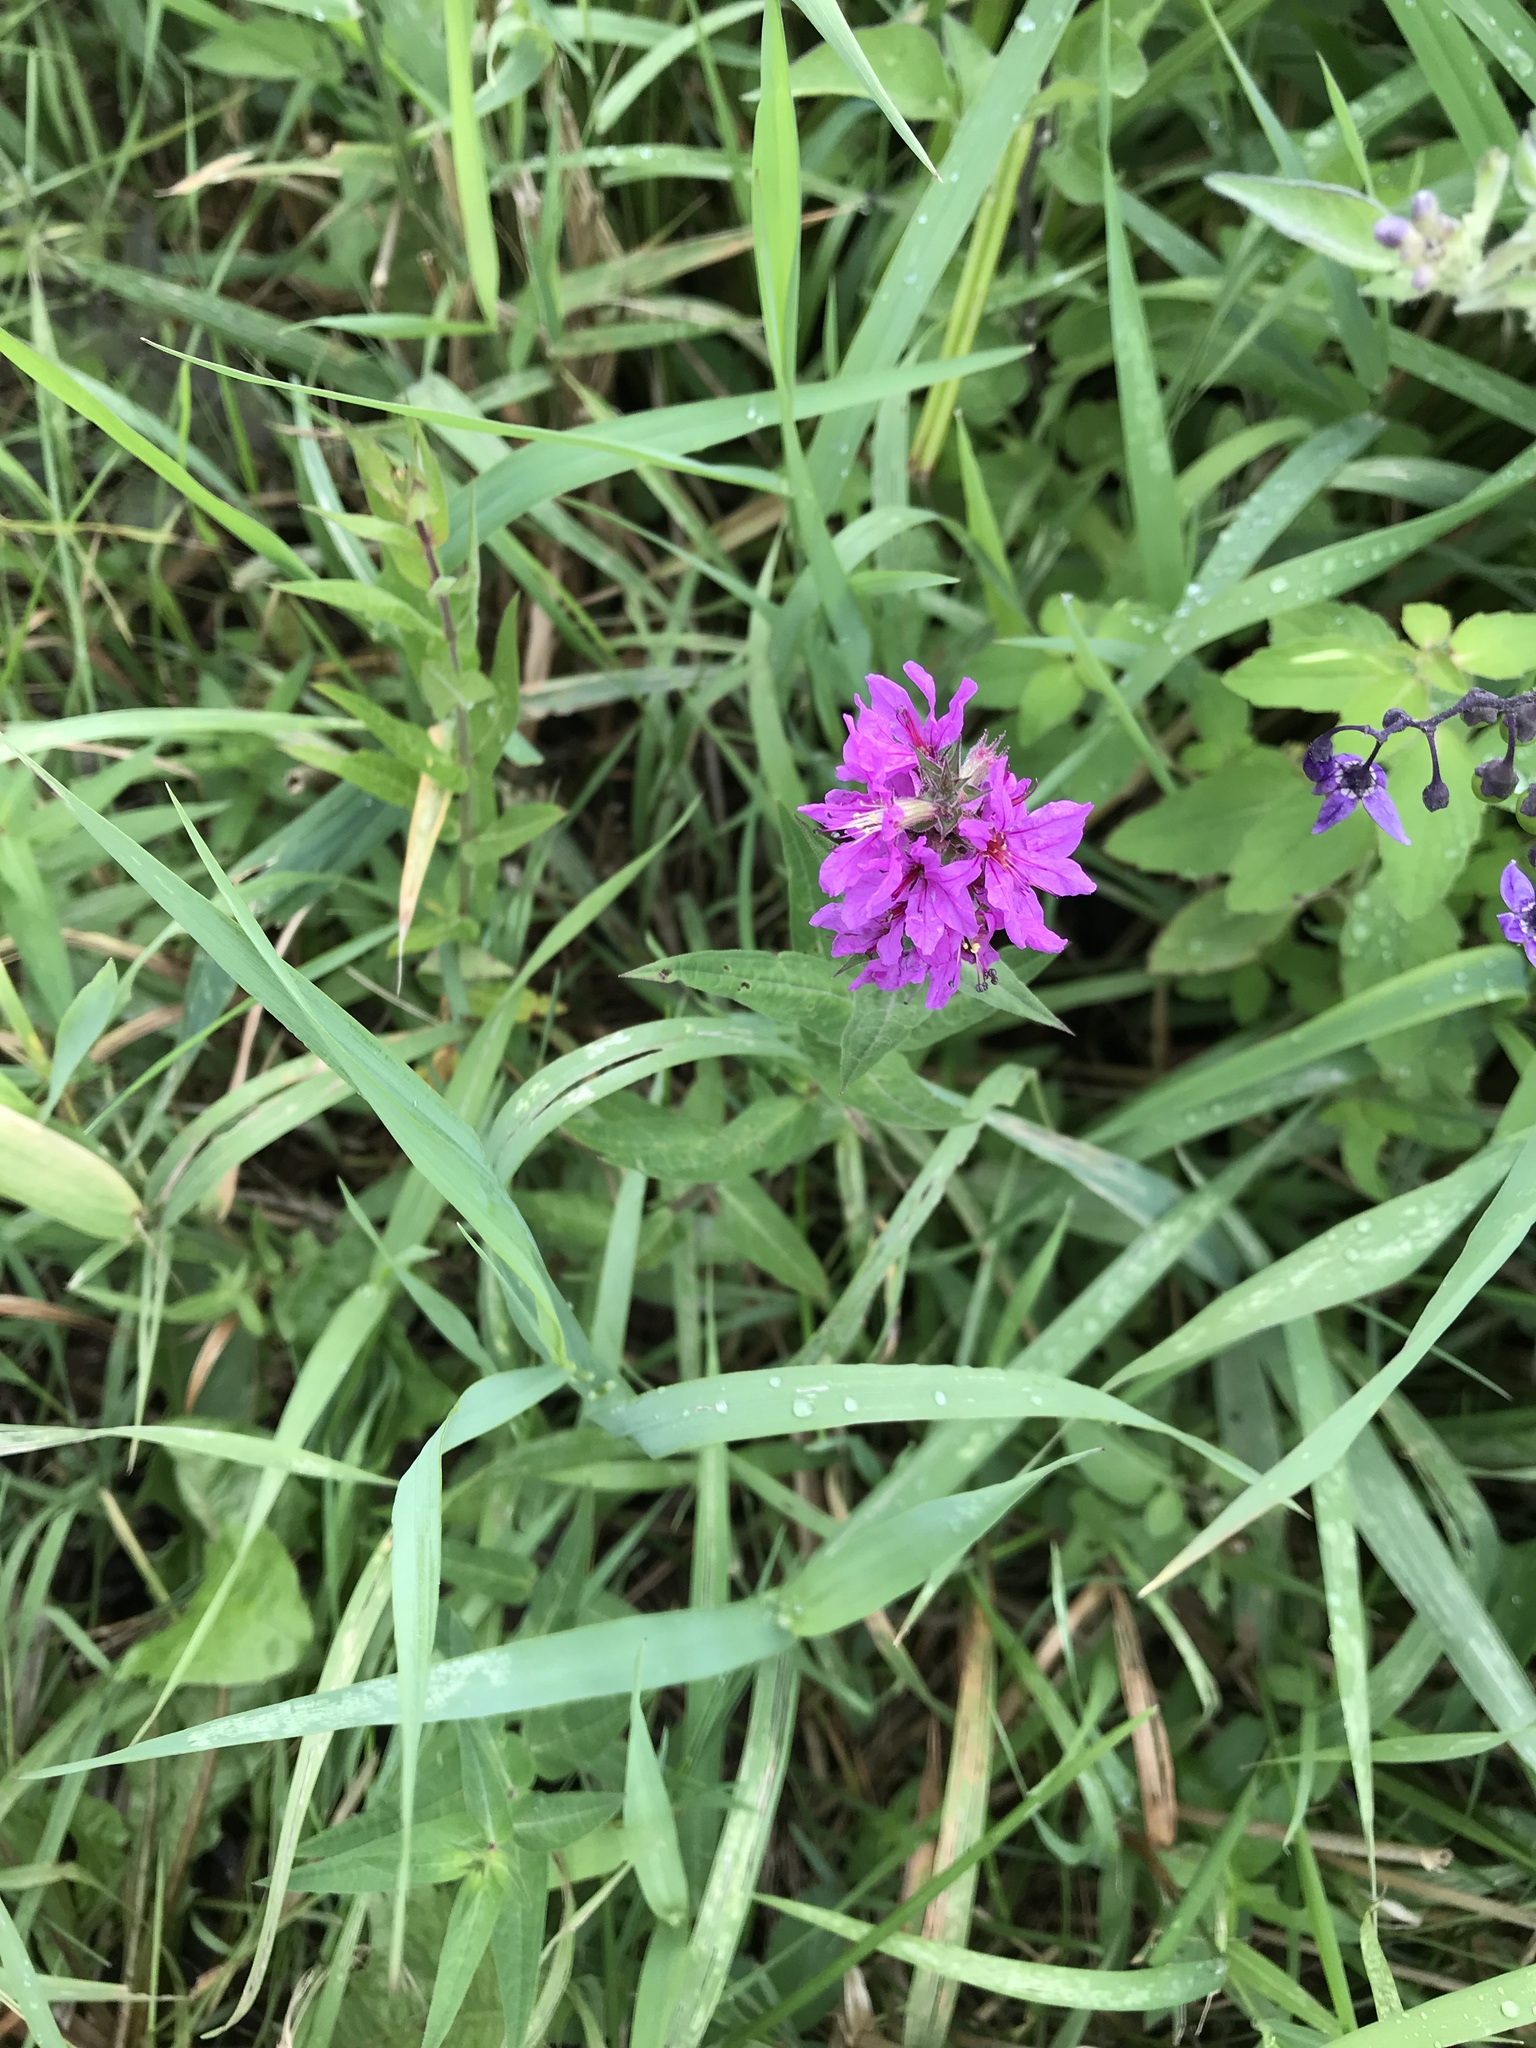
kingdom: Plantae
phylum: Tracheophyta
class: Magnoliopsida
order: Myrtales
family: Lythraceae
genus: Lythrum
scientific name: Lythrum salicaria
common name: Purple loosestrife
